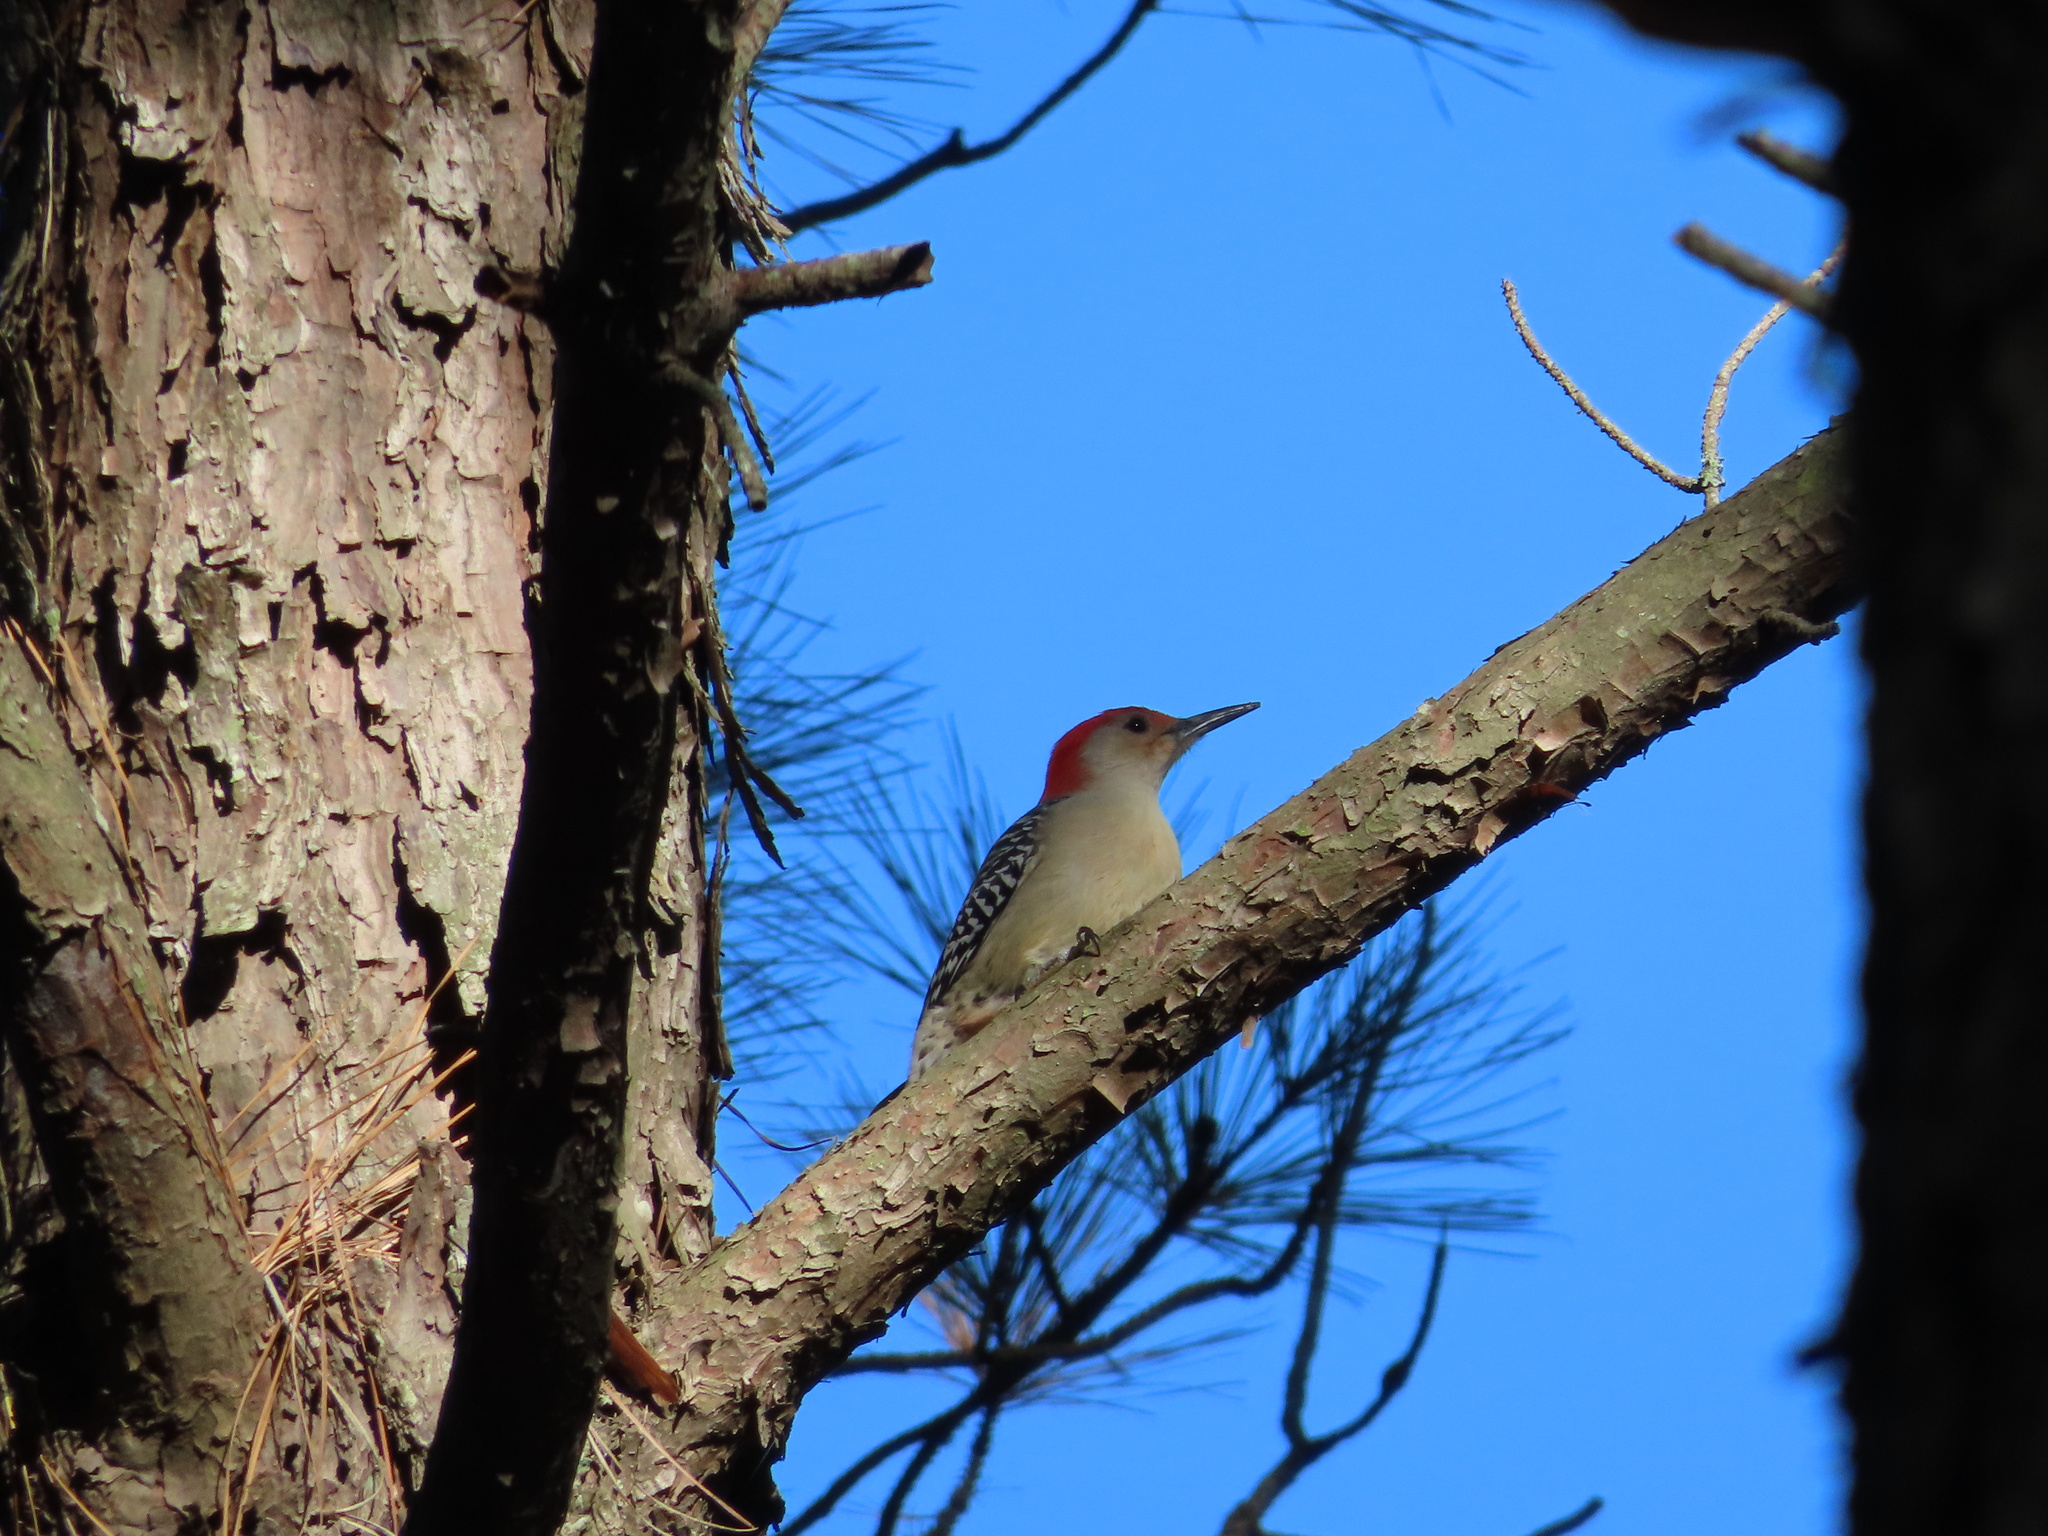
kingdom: Animalia
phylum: Chordata
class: Aves
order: Piciformes
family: Picidae
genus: Melanerpes
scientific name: Melanerpes carolinus
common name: Red-bellied woodpecker
